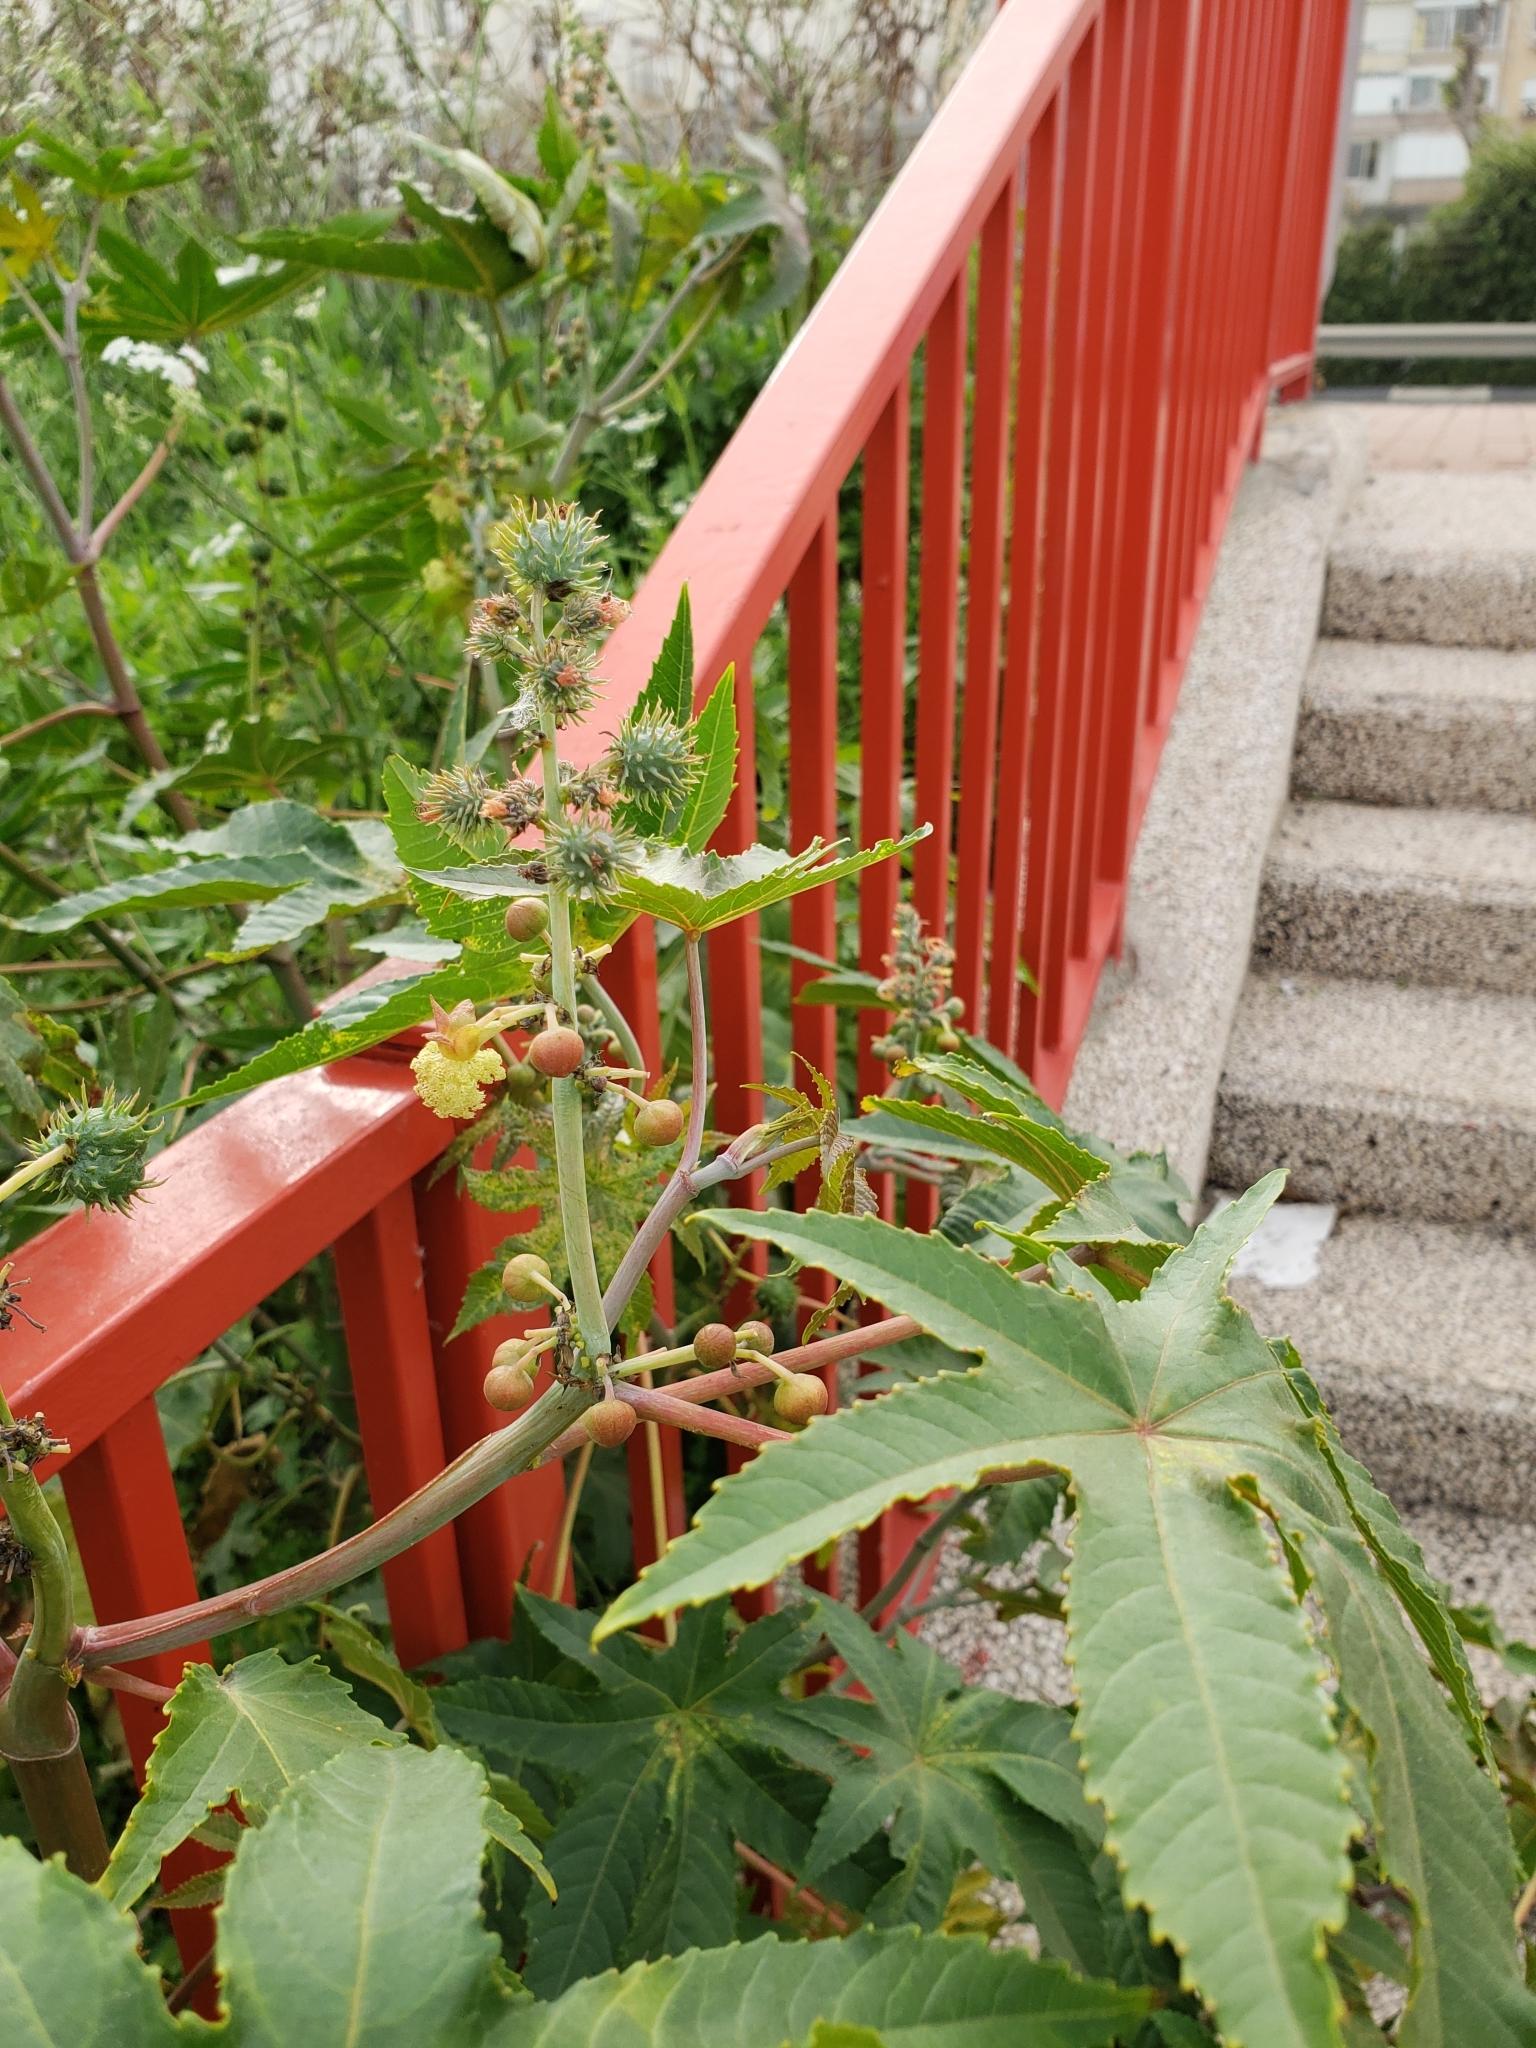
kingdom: Plantae
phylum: Tracheophyta
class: Magnoliopsida
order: Malpighiales
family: Euphorbiaceae
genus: Ricinus
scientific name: Ricinus communis
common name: Castor-oil-plant
